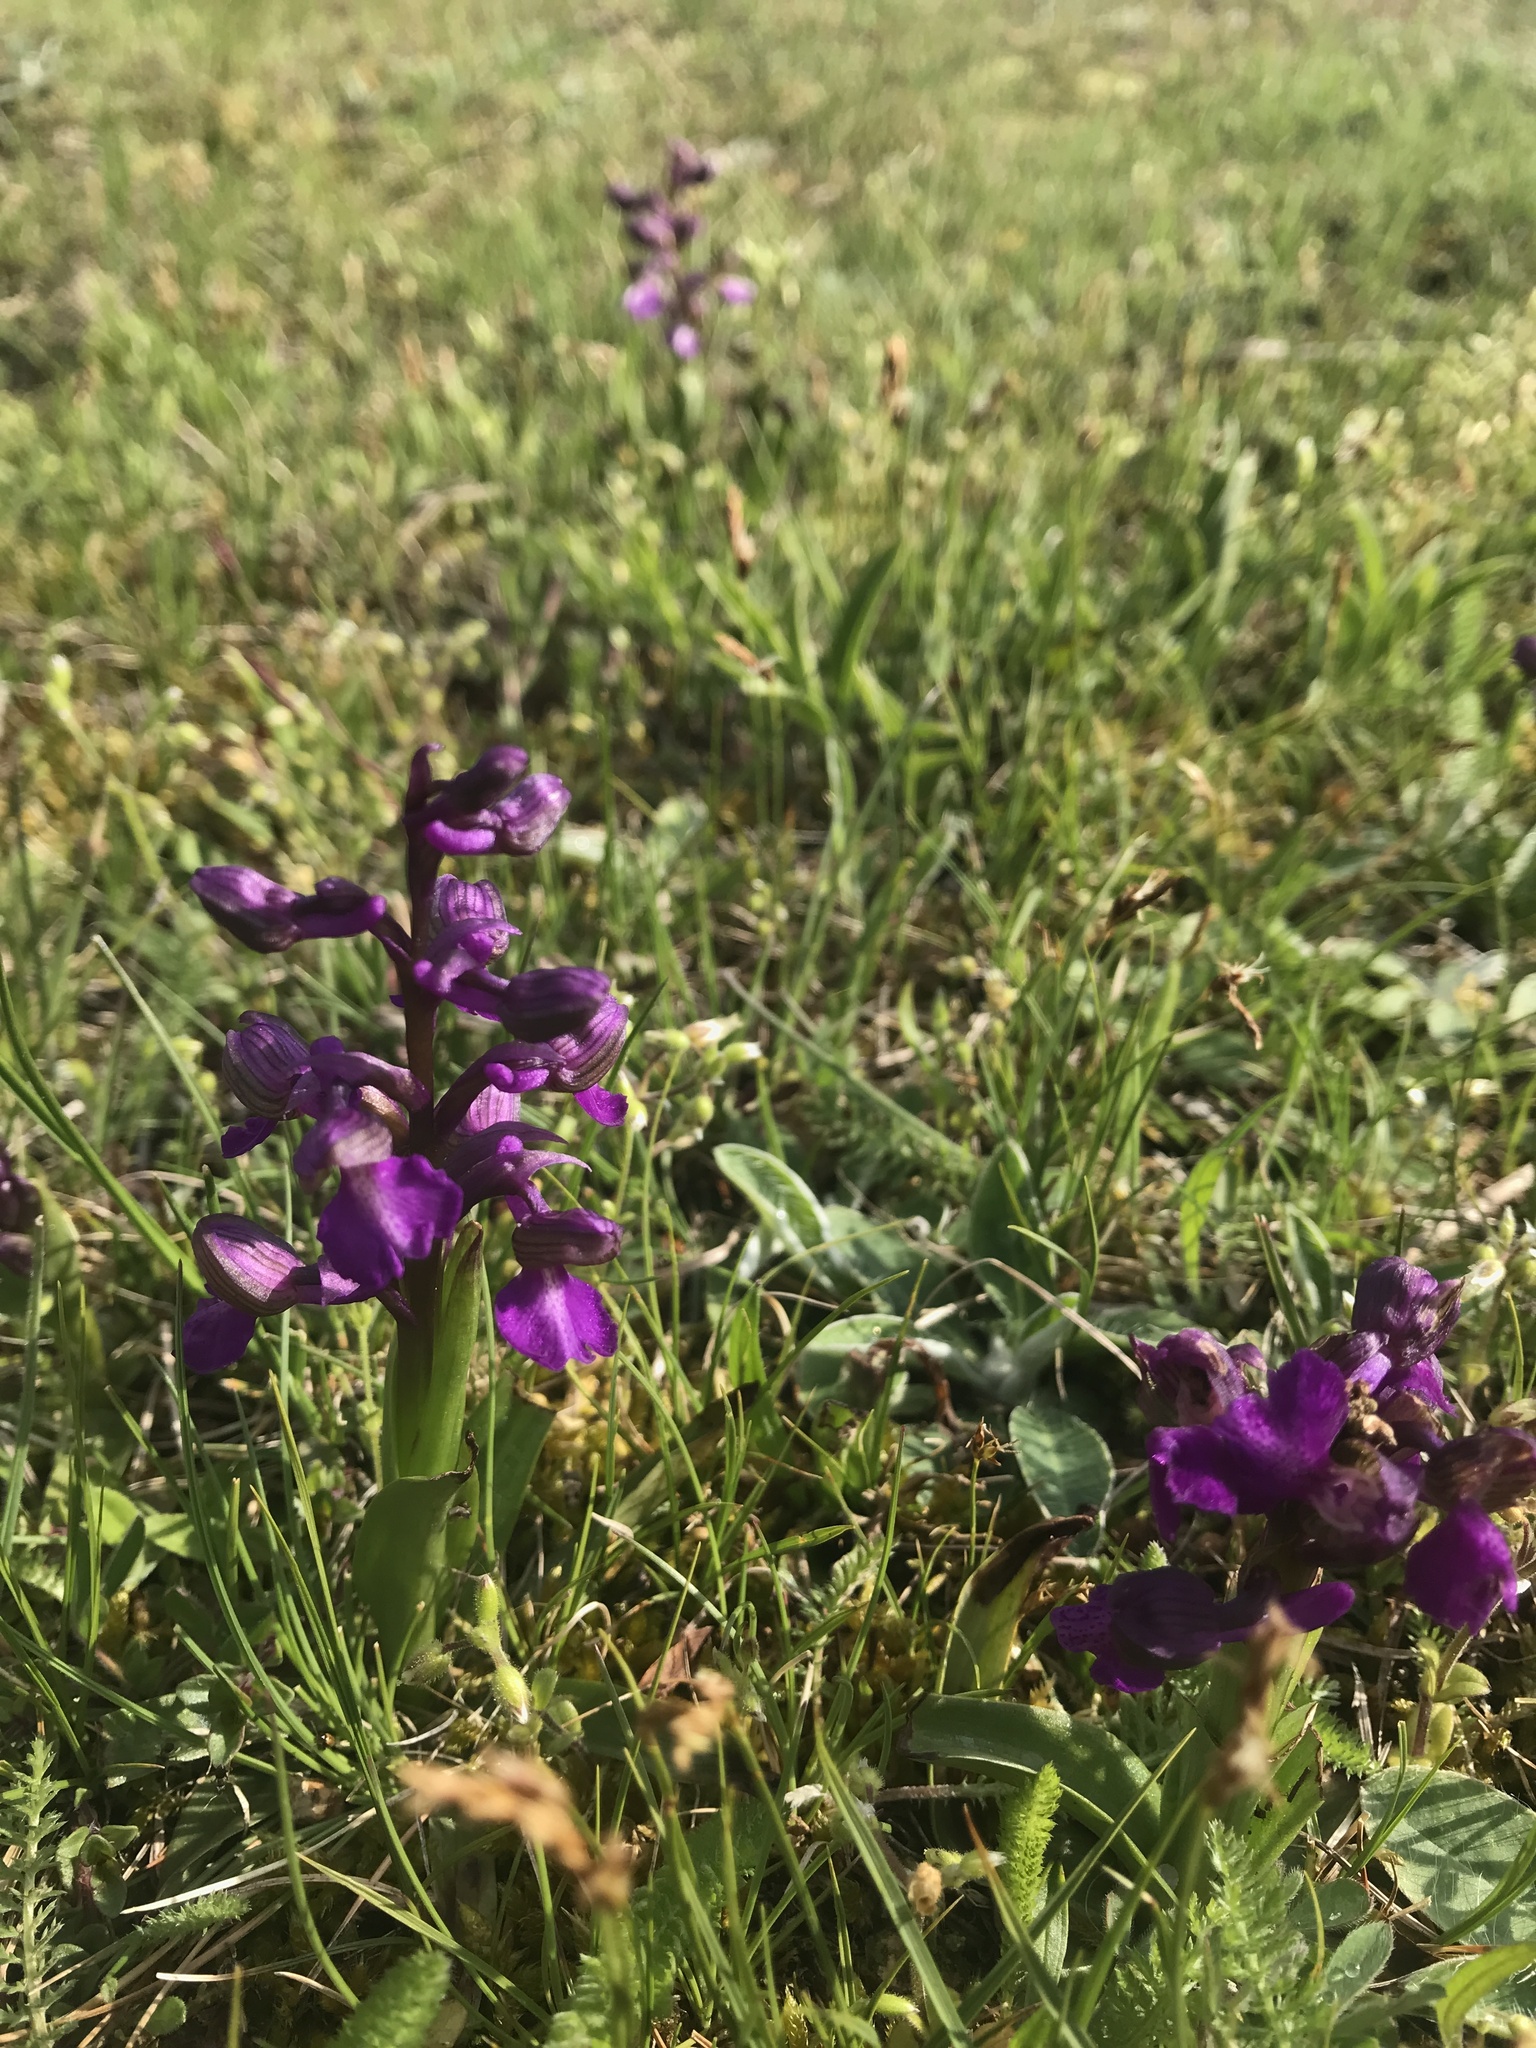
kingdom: Plantae
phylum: Tracheophyta
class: Liliopsida
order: Asparagales
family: Orchidaceae
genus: Anacamptis
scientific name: Anacamptis morio
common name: Green-winged orchid
